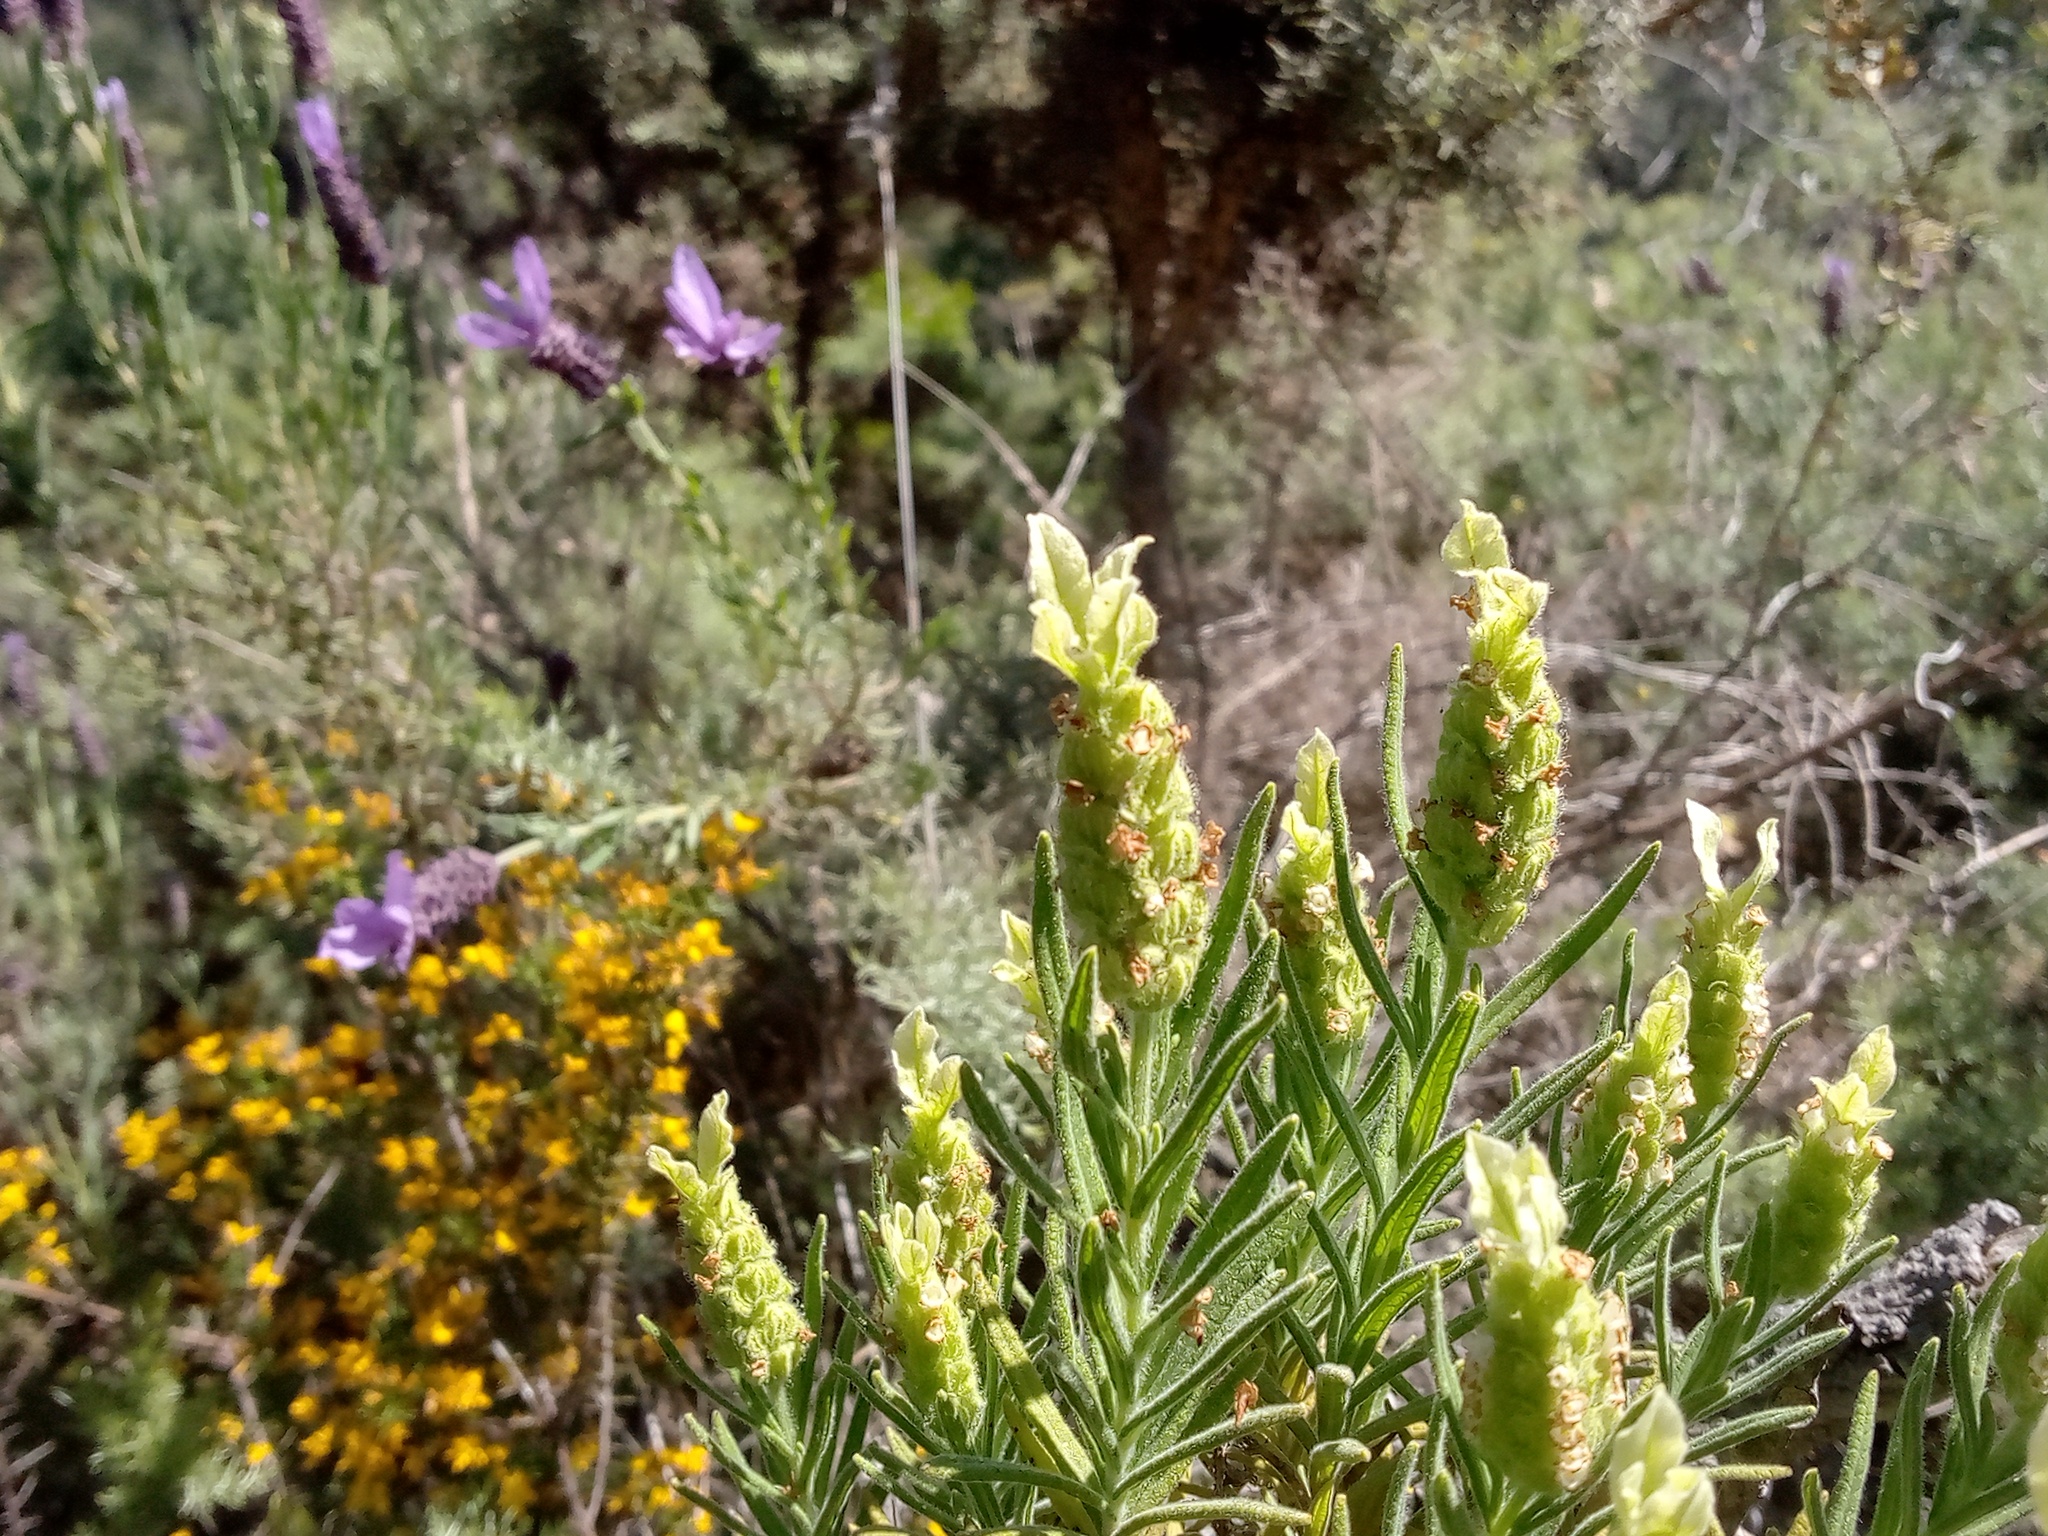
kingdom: Plantae
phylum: Tracheophyta
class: Magnoliopsida
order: Lamiales
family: Lamiaceae
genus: Lavandula
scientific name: Lavandula viridis
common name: Green spanish lavender
